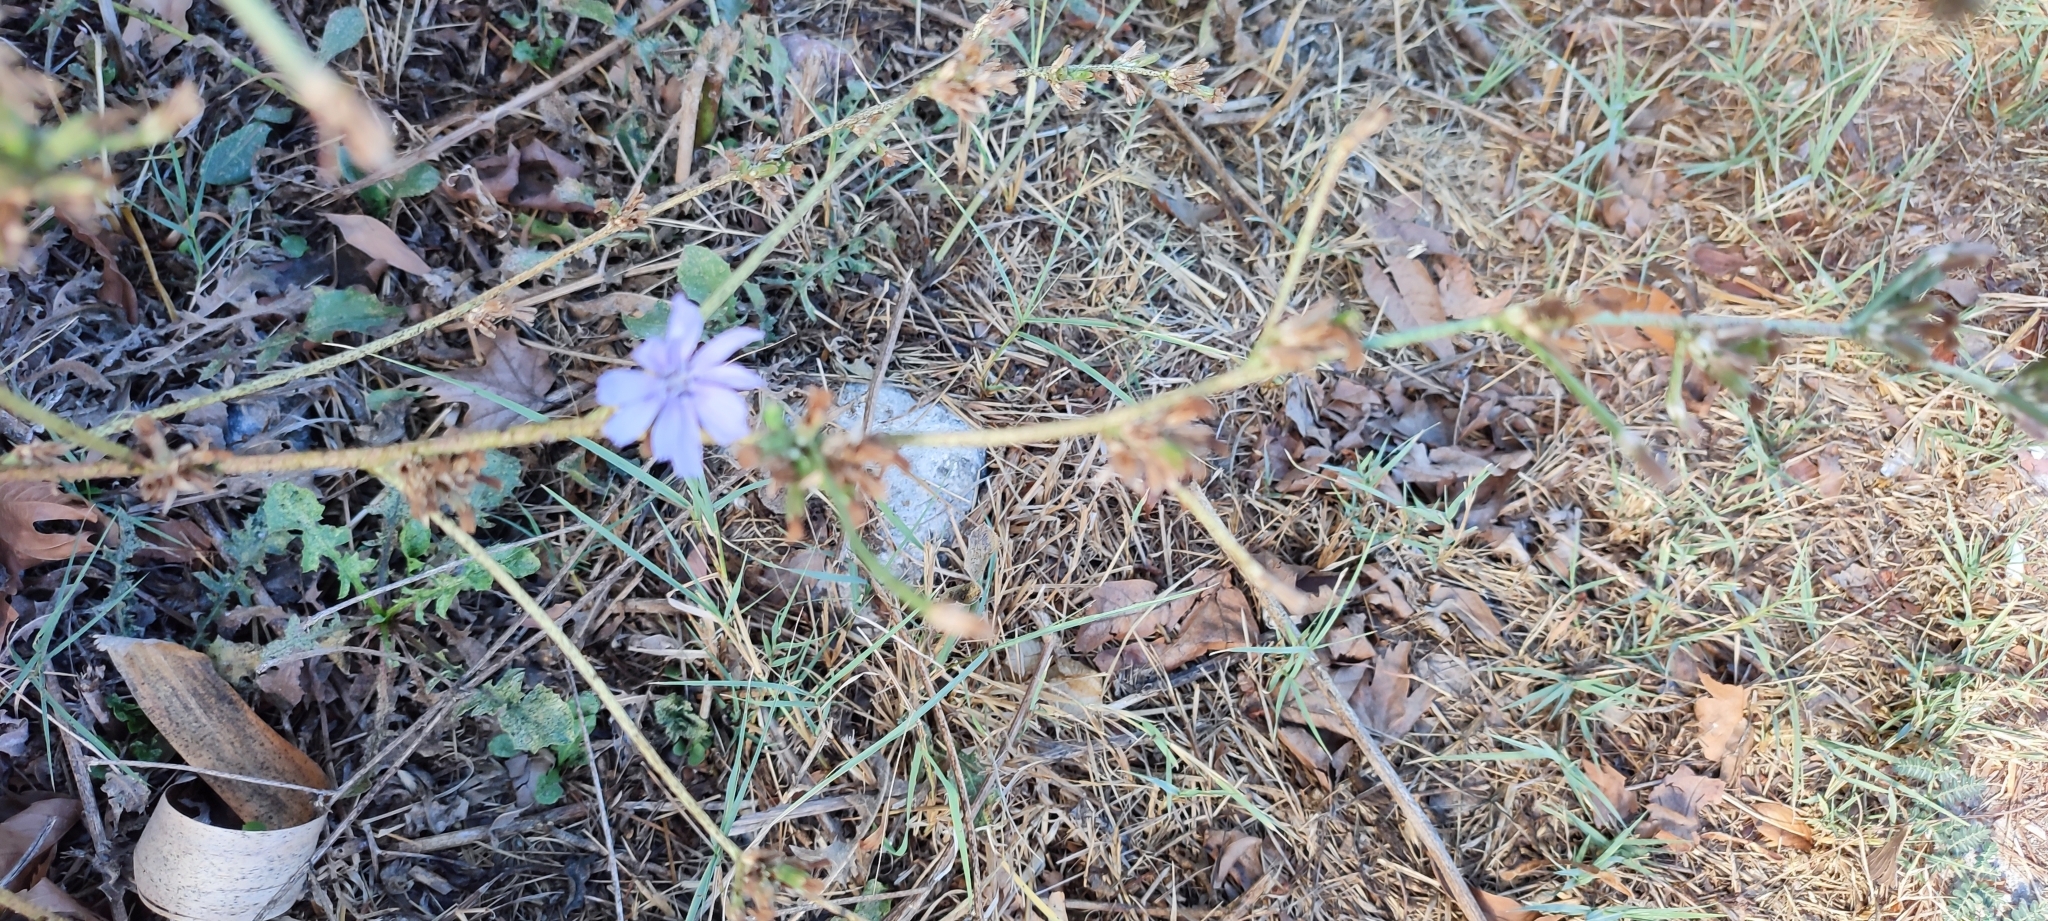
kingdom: Plantae
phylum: Tracheophyta
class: Magnoliopsida
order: Asterales
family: Asteraceae
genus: Cichorium
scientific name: Cichorium intybus
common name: Chicory
